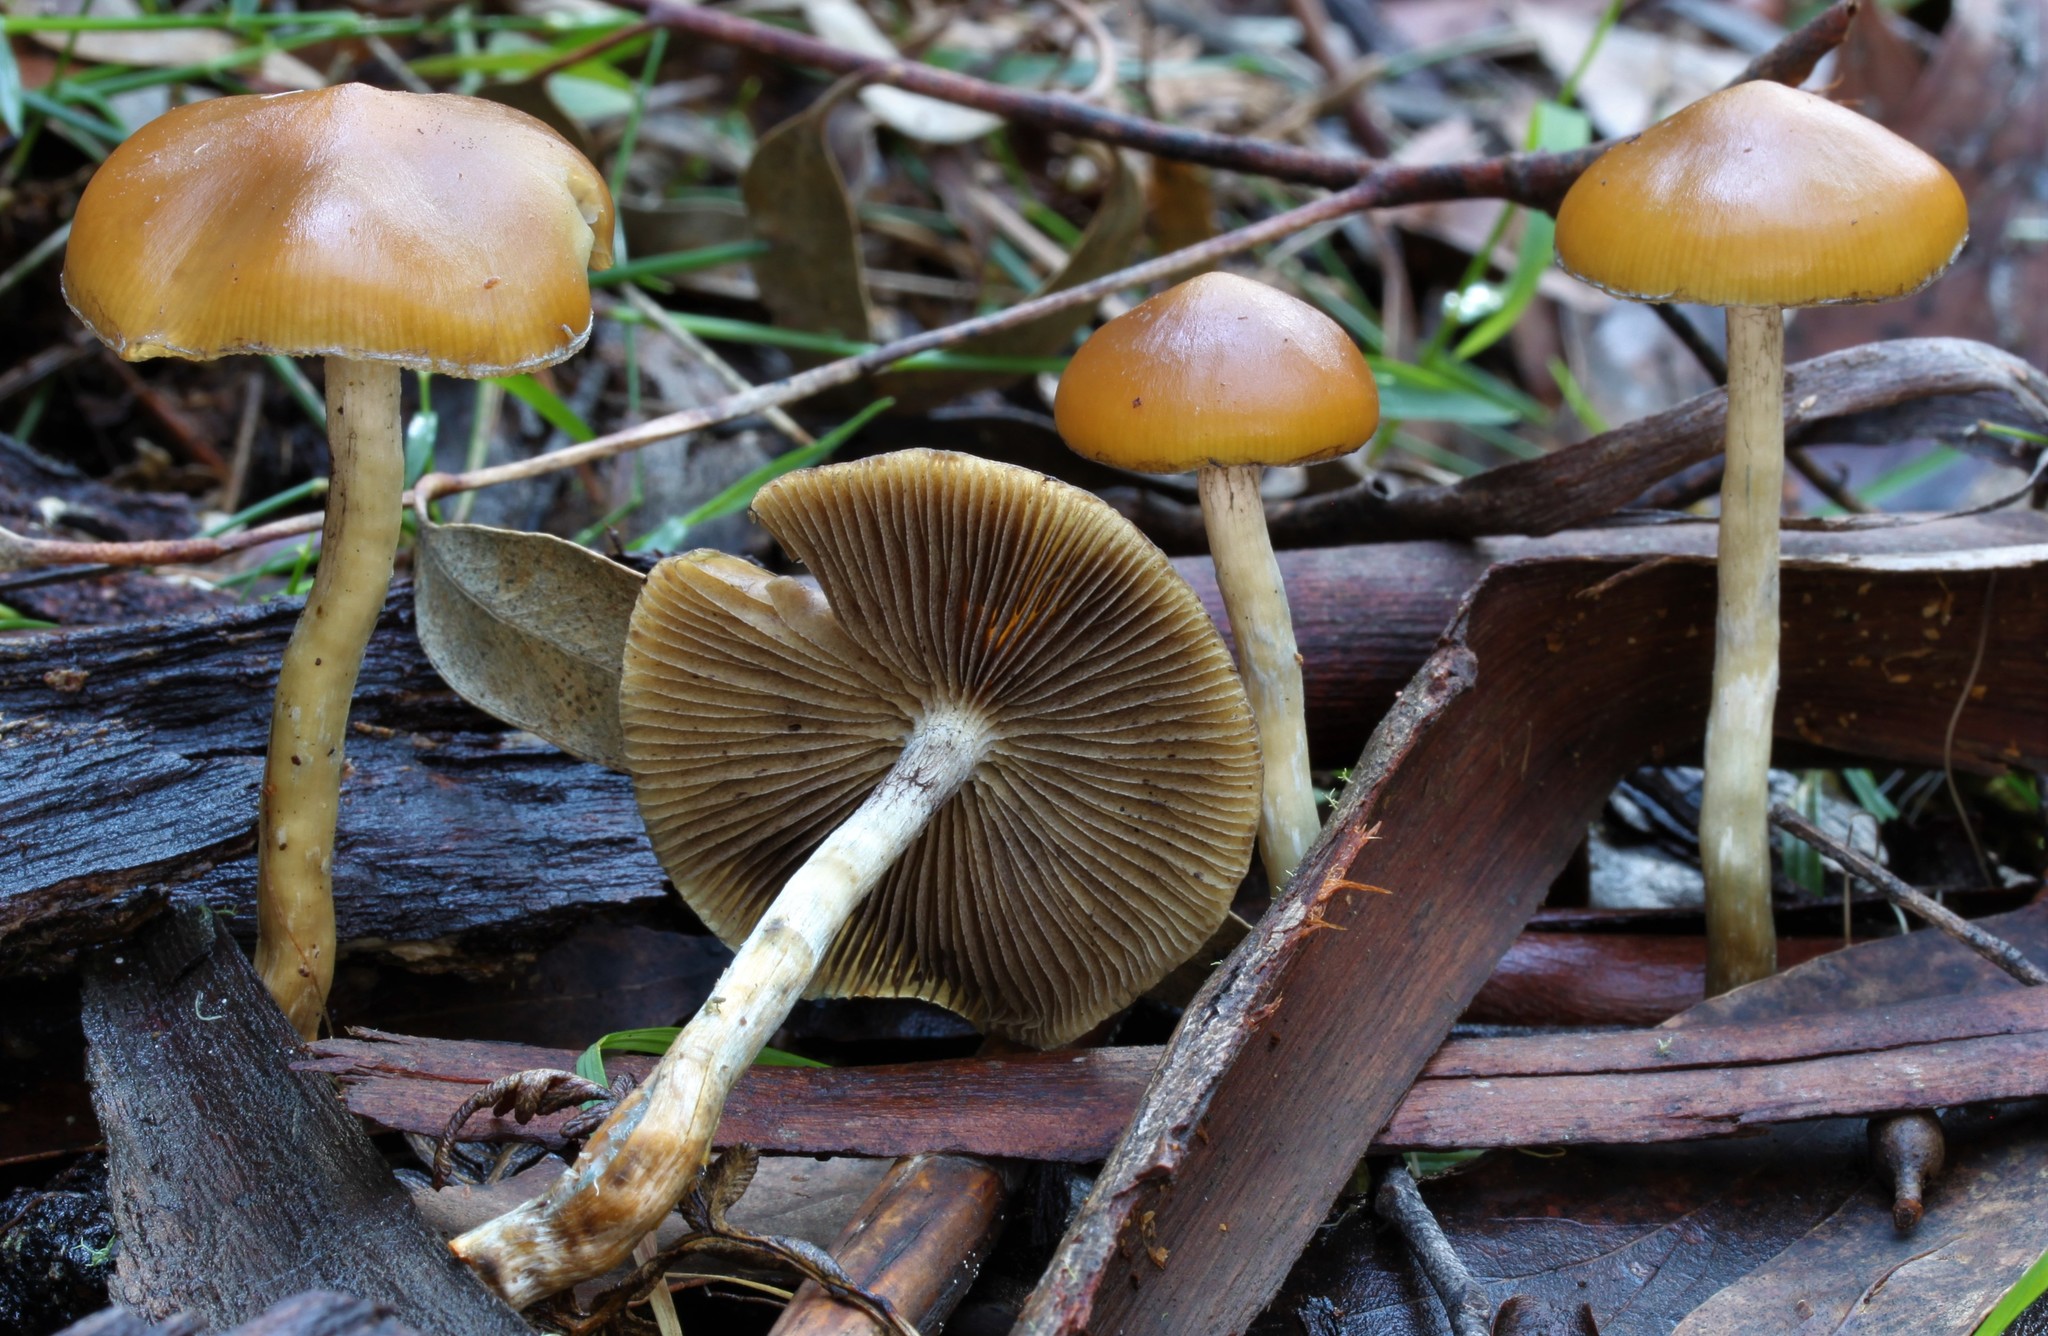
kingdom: Fungi
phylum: Basidiomycota
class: Agaricomycetes
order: Agaricales
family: Hymenogastraceae
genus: Psilocybe
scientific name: Psilocybe subaeruginosa
